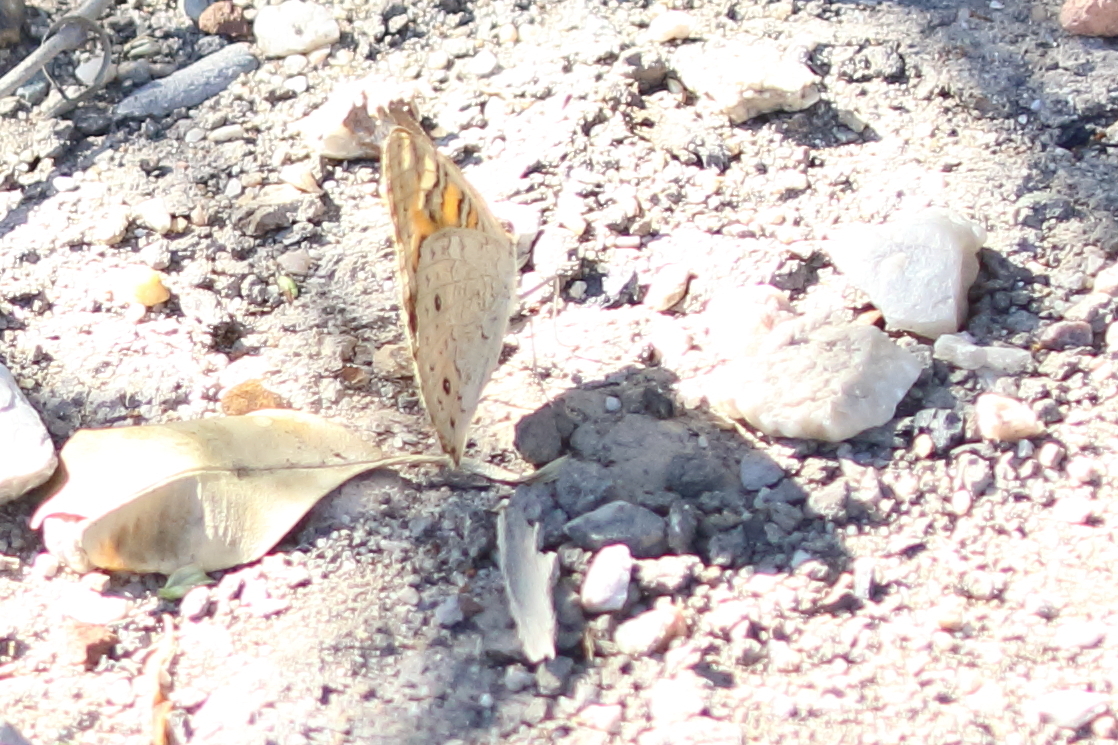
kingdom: Animalia
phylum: Arthropoda
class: Insecta
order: Lepidoptera
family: Nymphalidae
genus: Junonia
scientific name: Junonia villida
